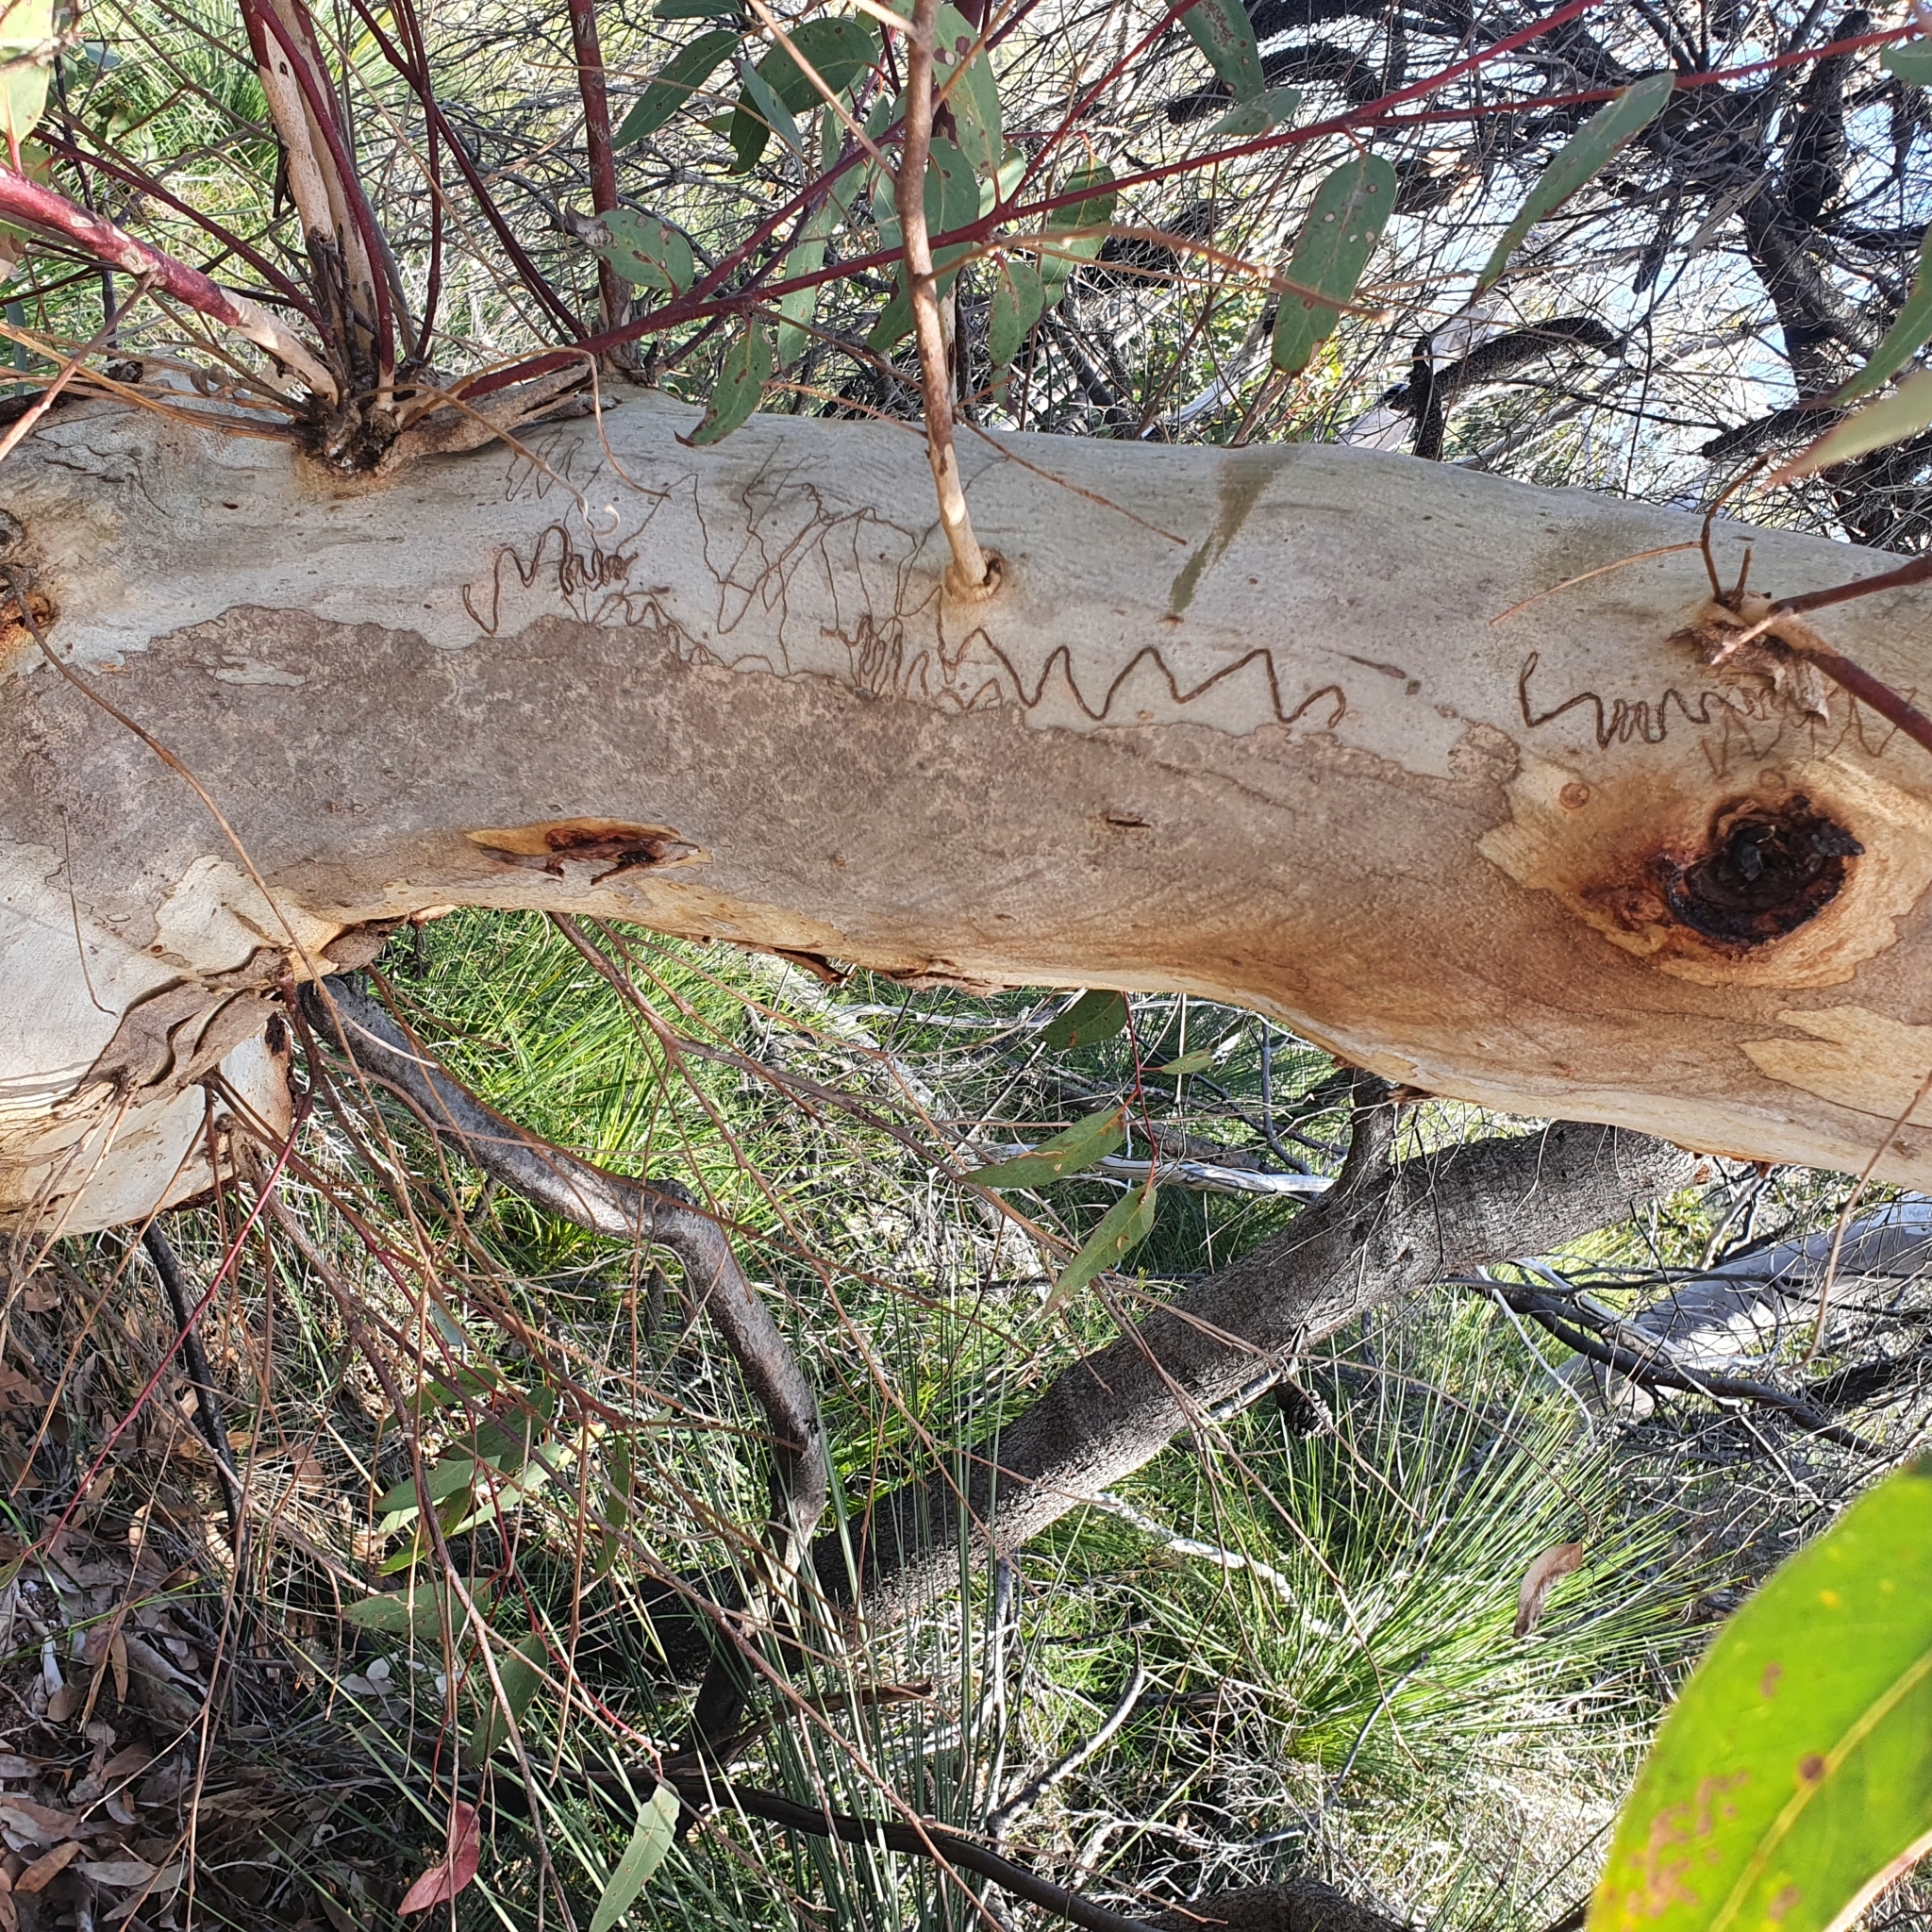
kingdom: Plantae
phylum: Tracheophyta
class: Magnoliopsida
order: Myrtales
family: Myrtaceae
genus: Eucalyptus
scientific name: Eucalyptus haemastoma
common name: Scribbly-gum
